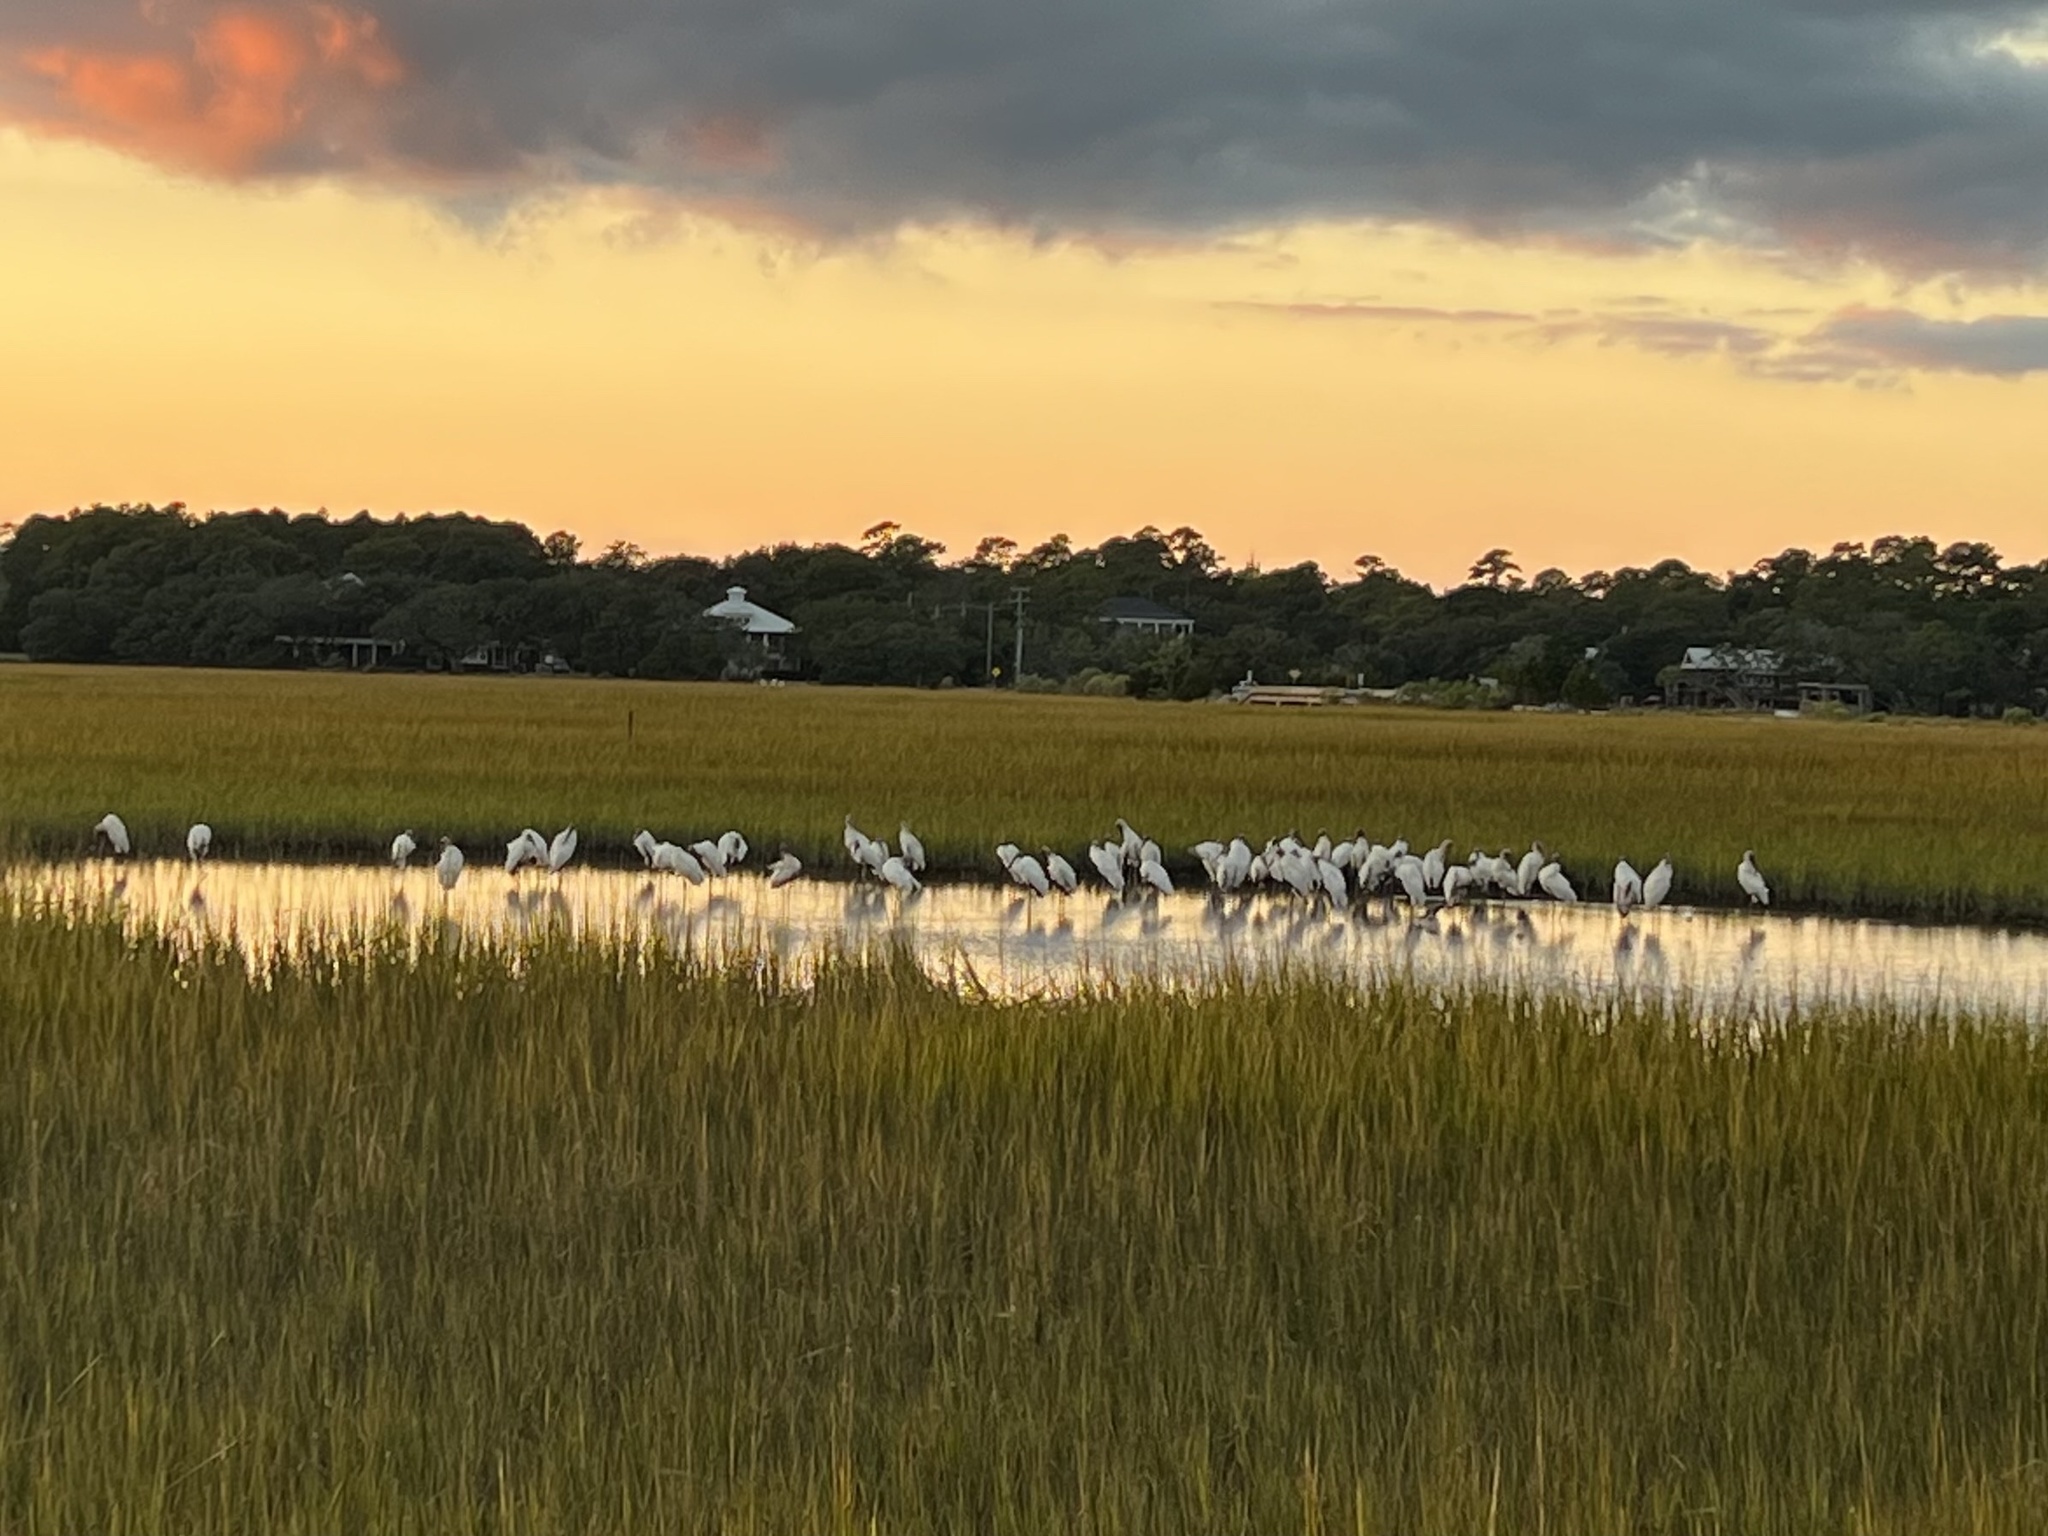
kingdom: Animalia
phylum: Chordata
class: Aves
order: Ciconiiformes
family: Ciconiidae
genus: Mycteria
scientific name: Mycteria americana
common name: Wood stork
